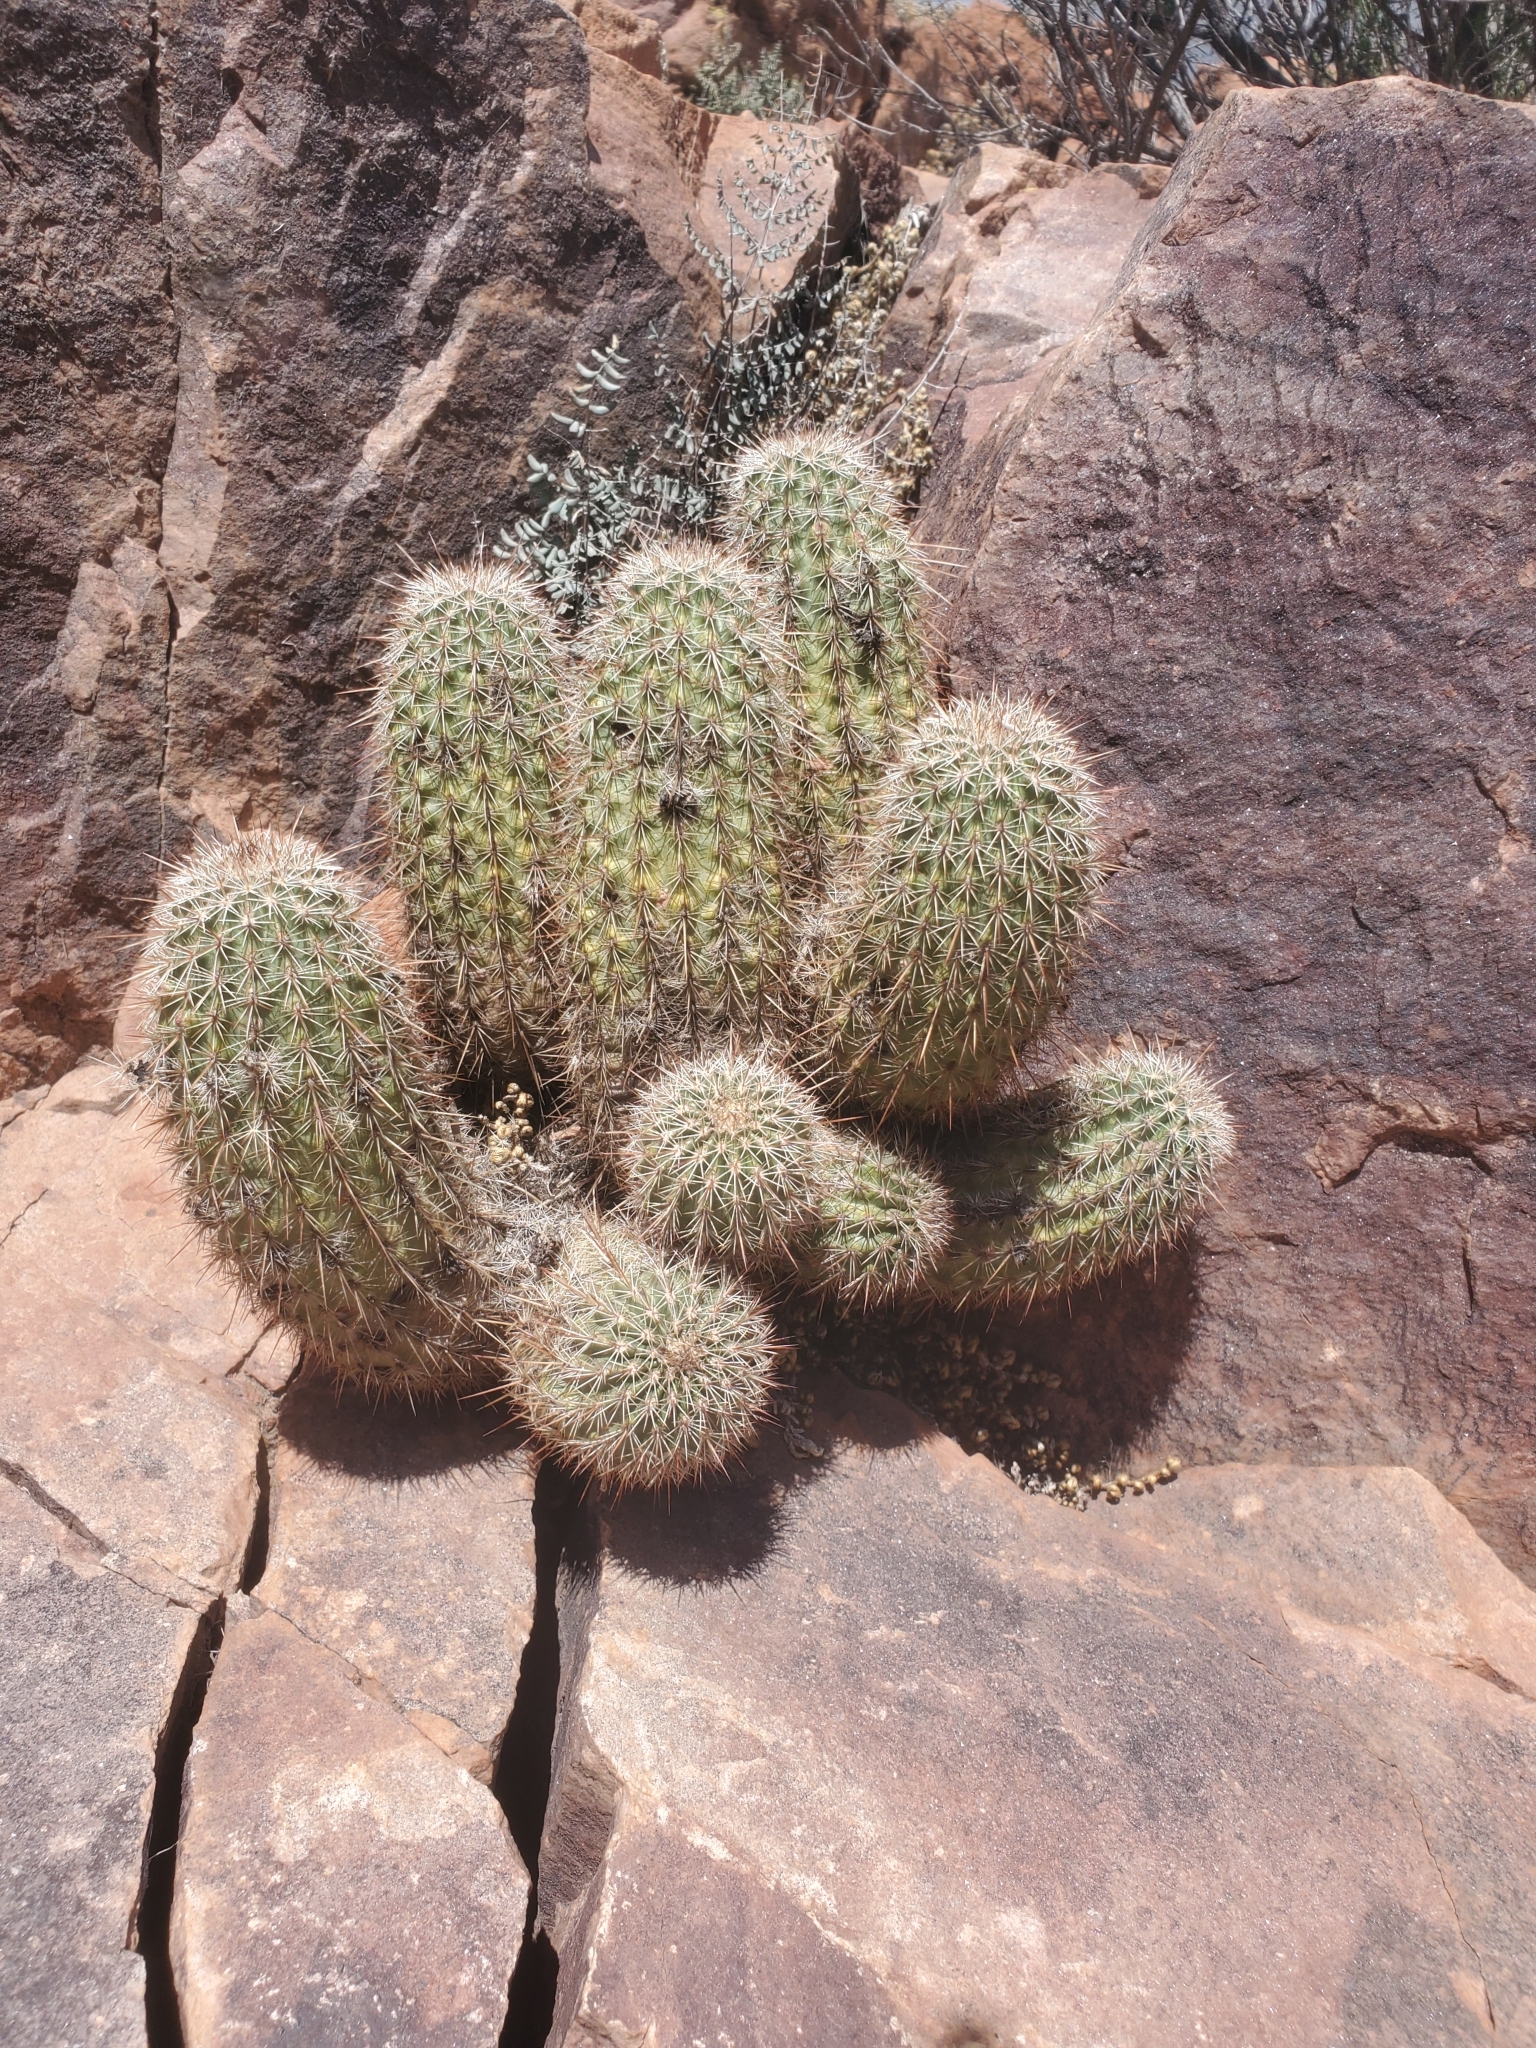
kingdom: Plantae
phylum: Tracheophyta
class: Magnoliopsida
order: Caryophyllales
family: Cactaceae
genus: Echinocereus
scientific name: Echinocereus bonkerae
